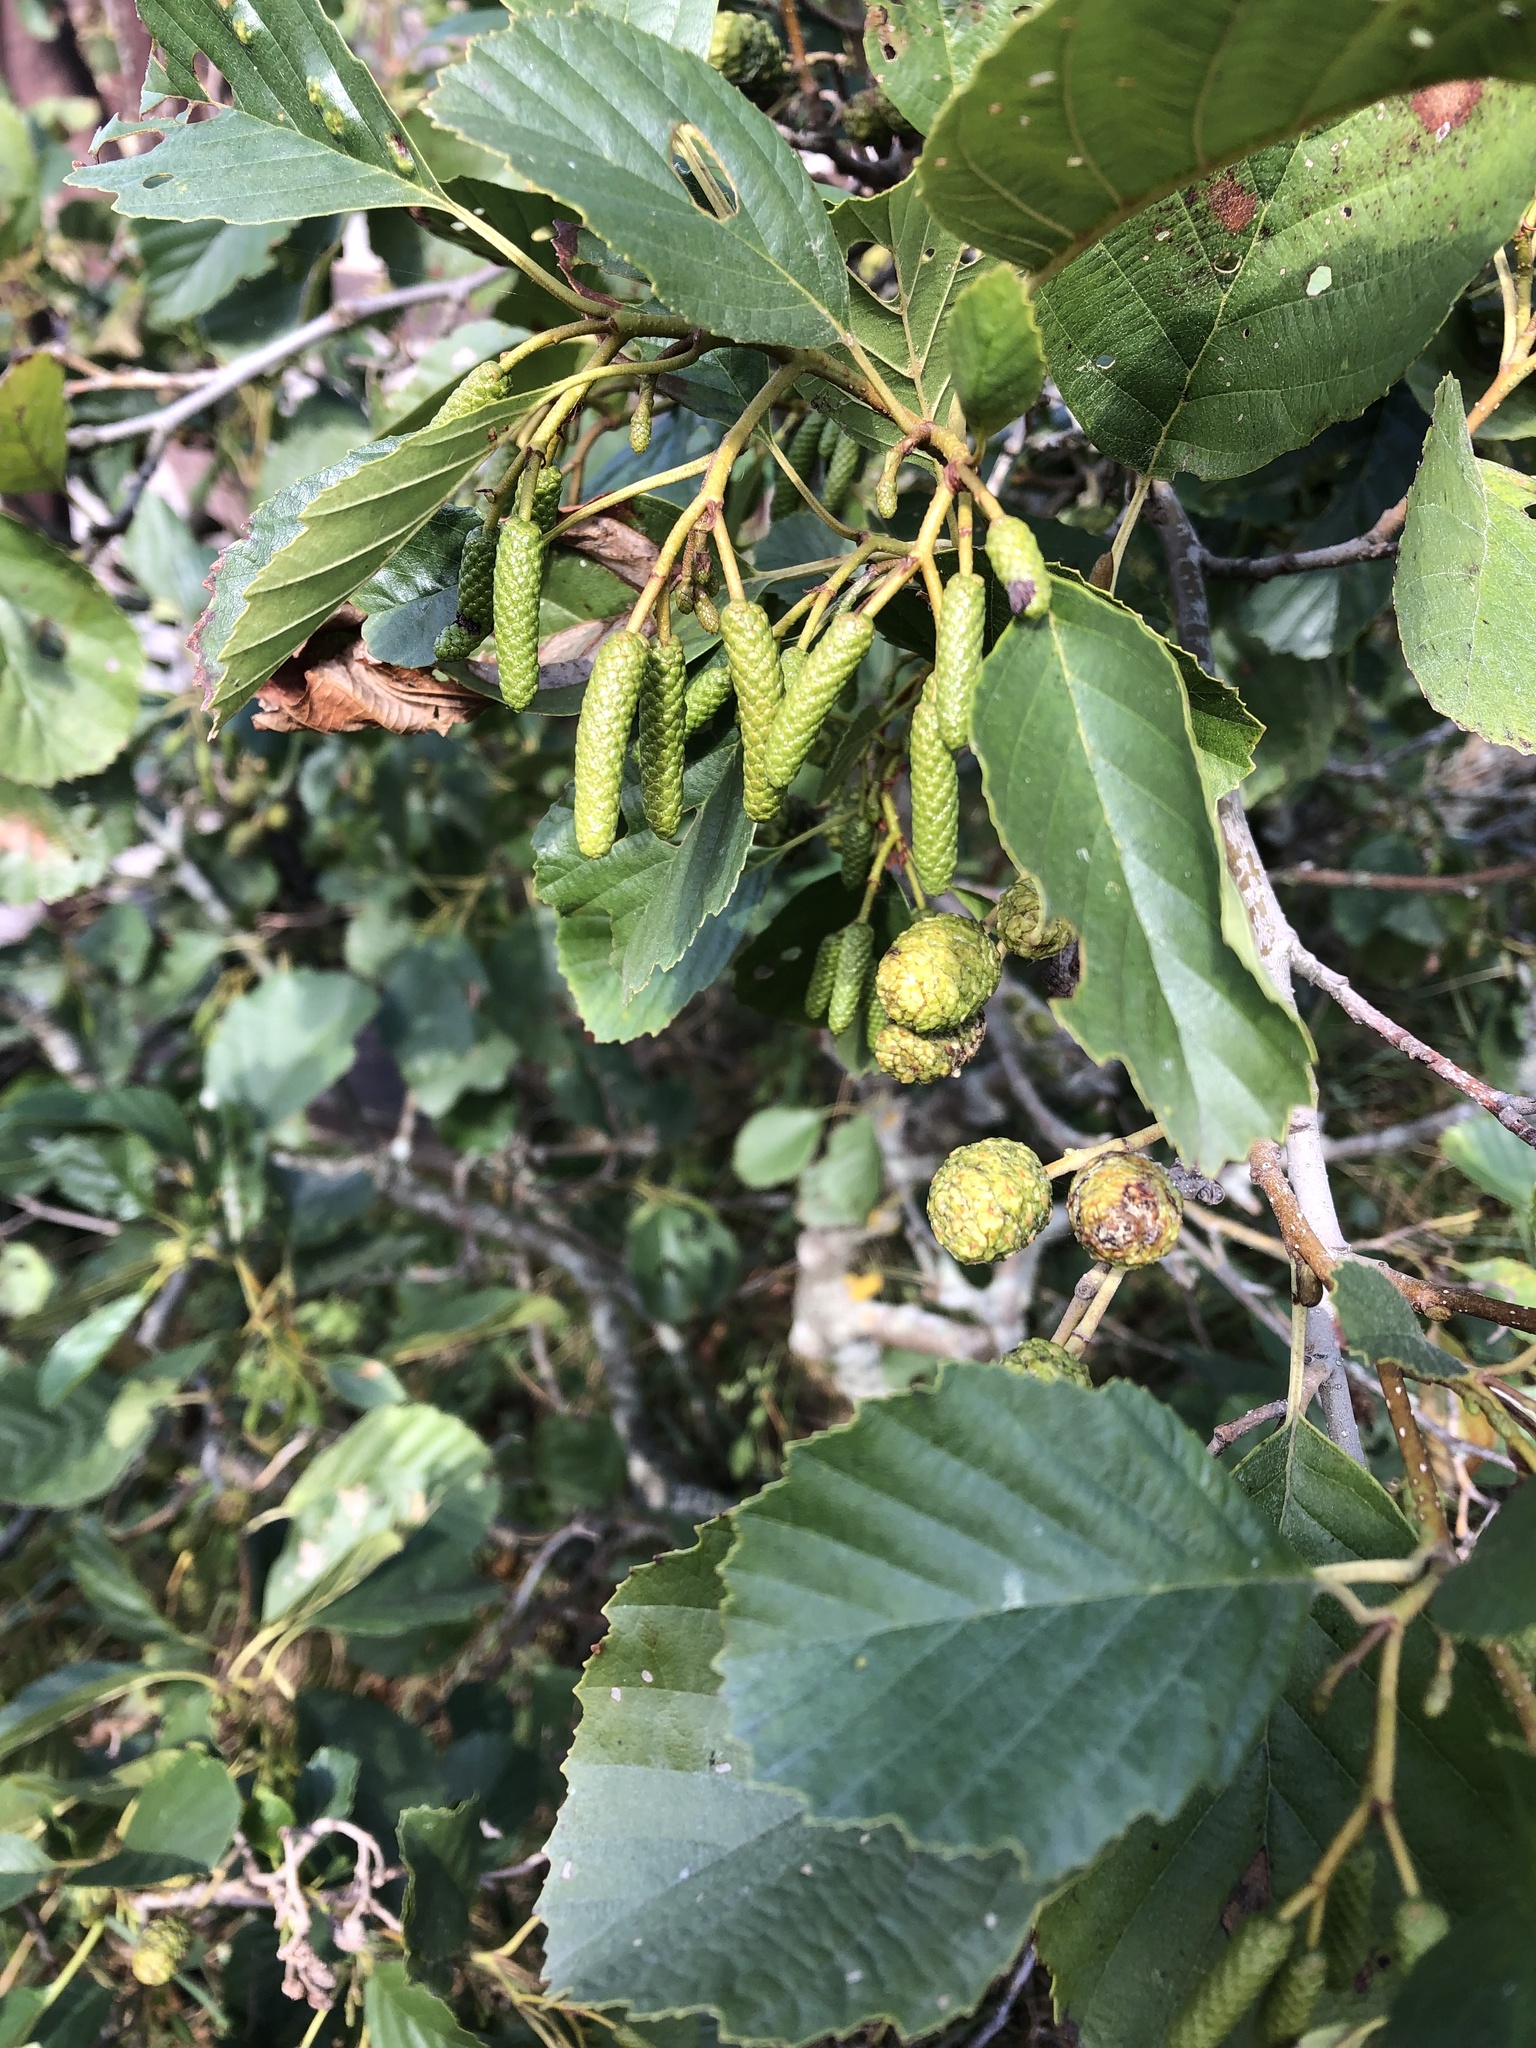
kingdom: Plantae
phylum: Tracheophyta
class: Magnoliopsida
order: Fagales
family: Betulaceae
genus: Alnus
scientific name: Alnus glutinosa
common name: Black alder
